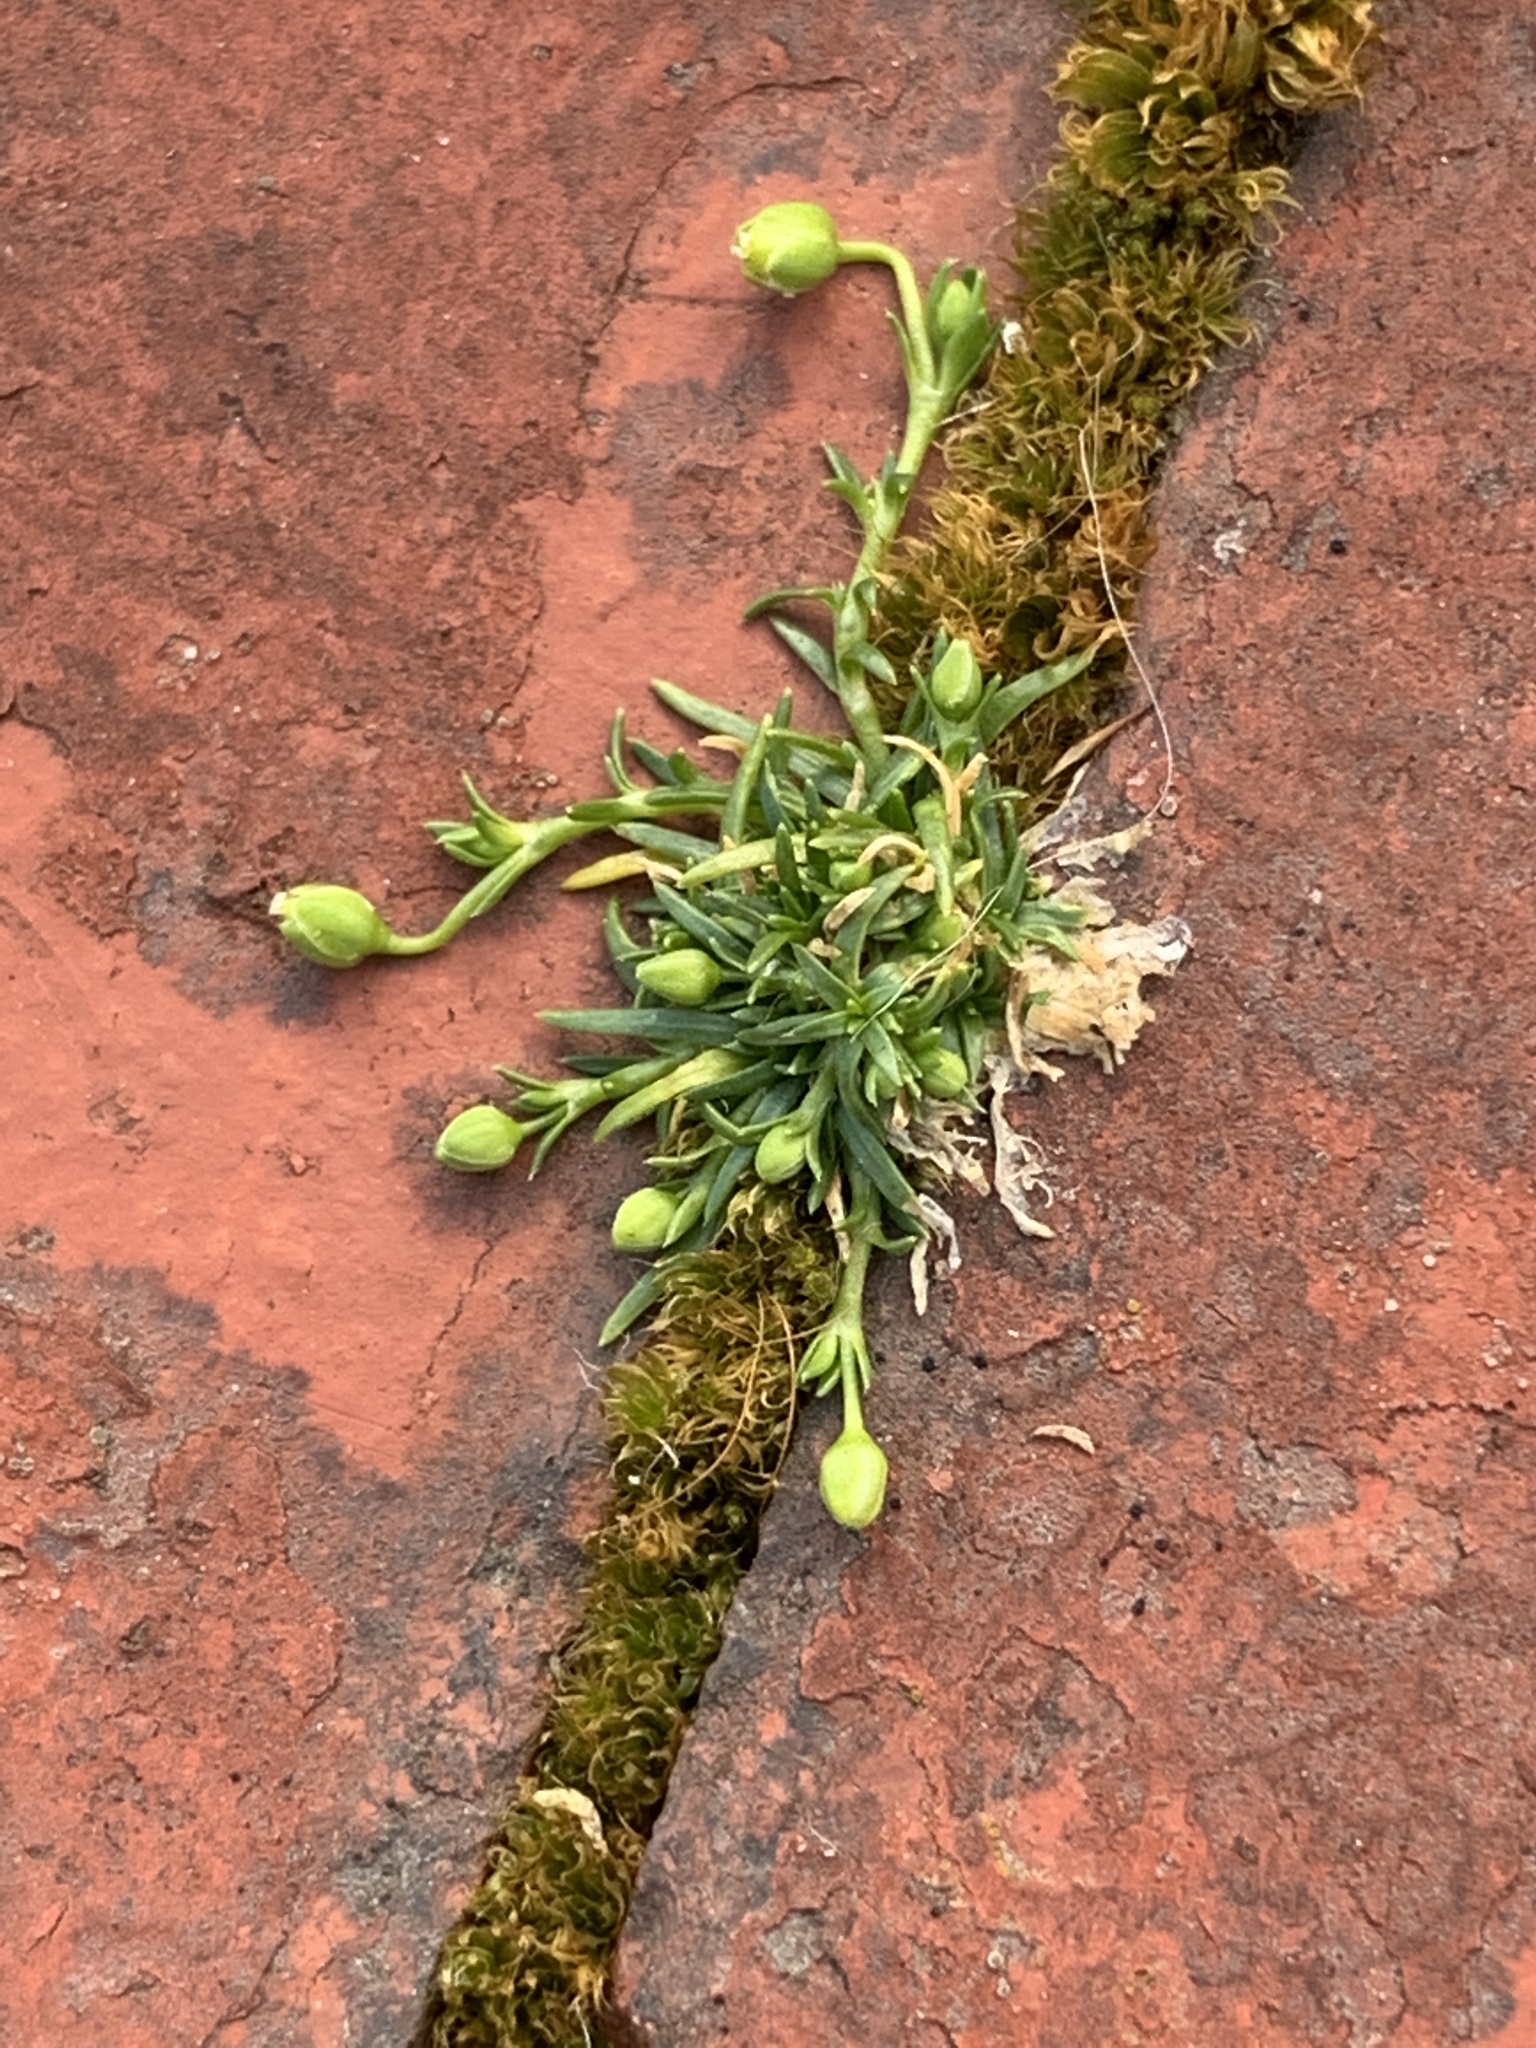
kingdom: Plantae
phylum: Tracheophyta
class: Magnoliopsida
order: Caryophyllales
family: Caryophyllaceae
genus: Sagina
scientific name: Sagina procumbens
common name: Procumbent pearlwort
